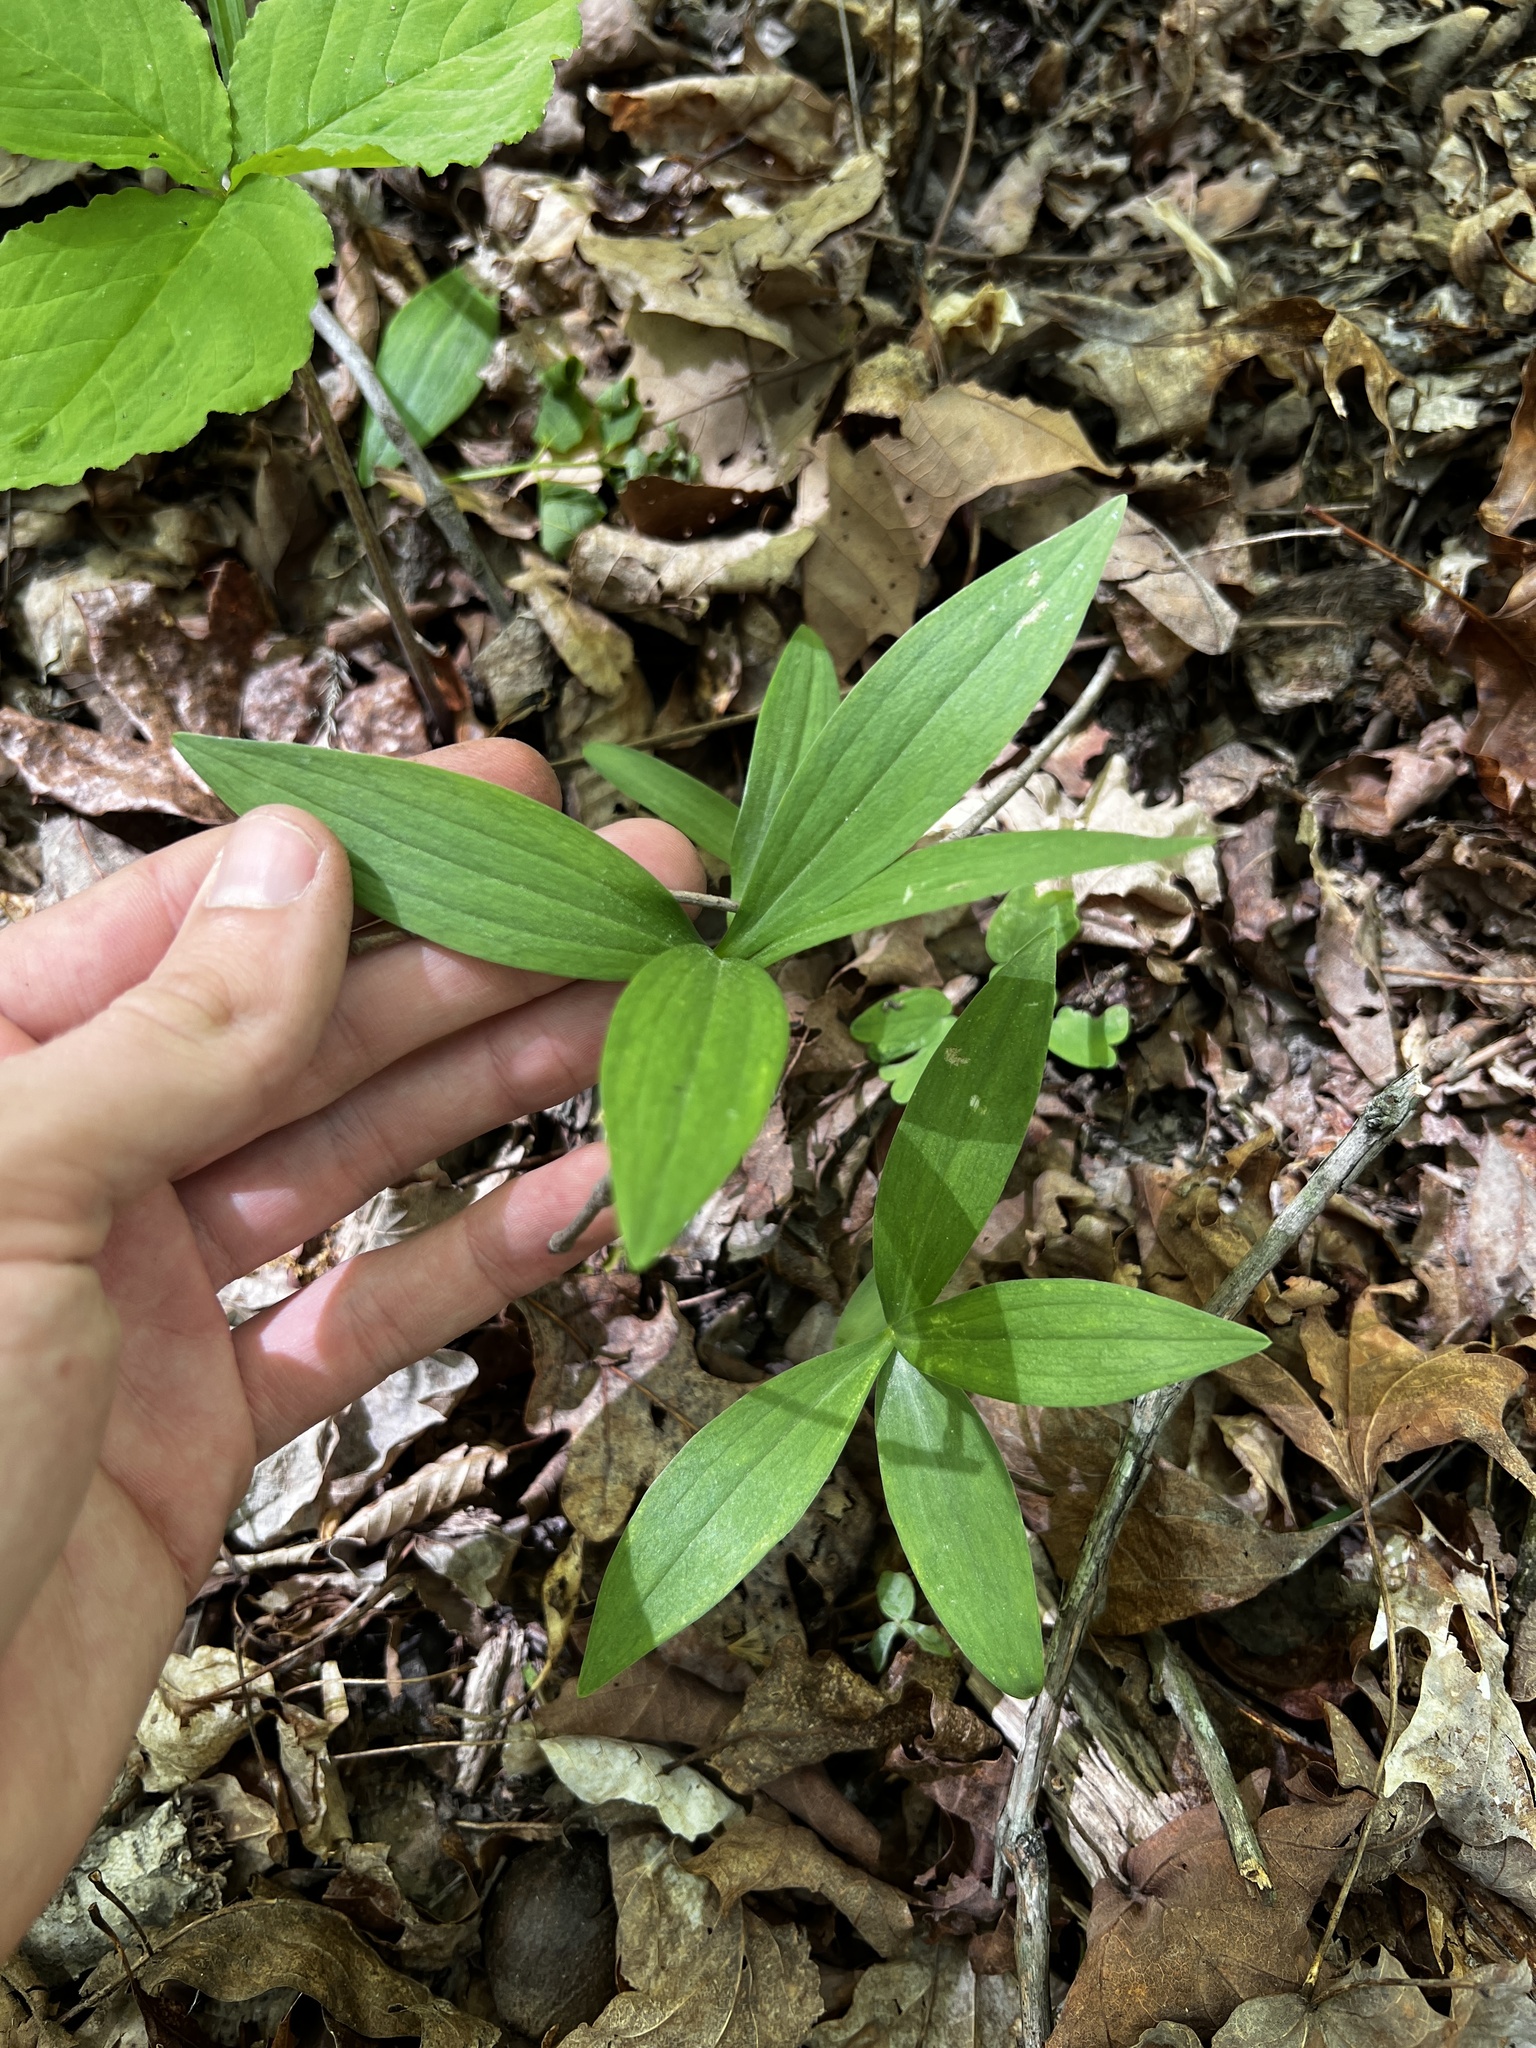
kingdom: Plantae
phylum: Tracheophyta
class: Liliopsida
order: Liliales
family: Liliaceae
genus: Lilium
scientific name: Lilium superbum
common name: American turk's-cap lily
